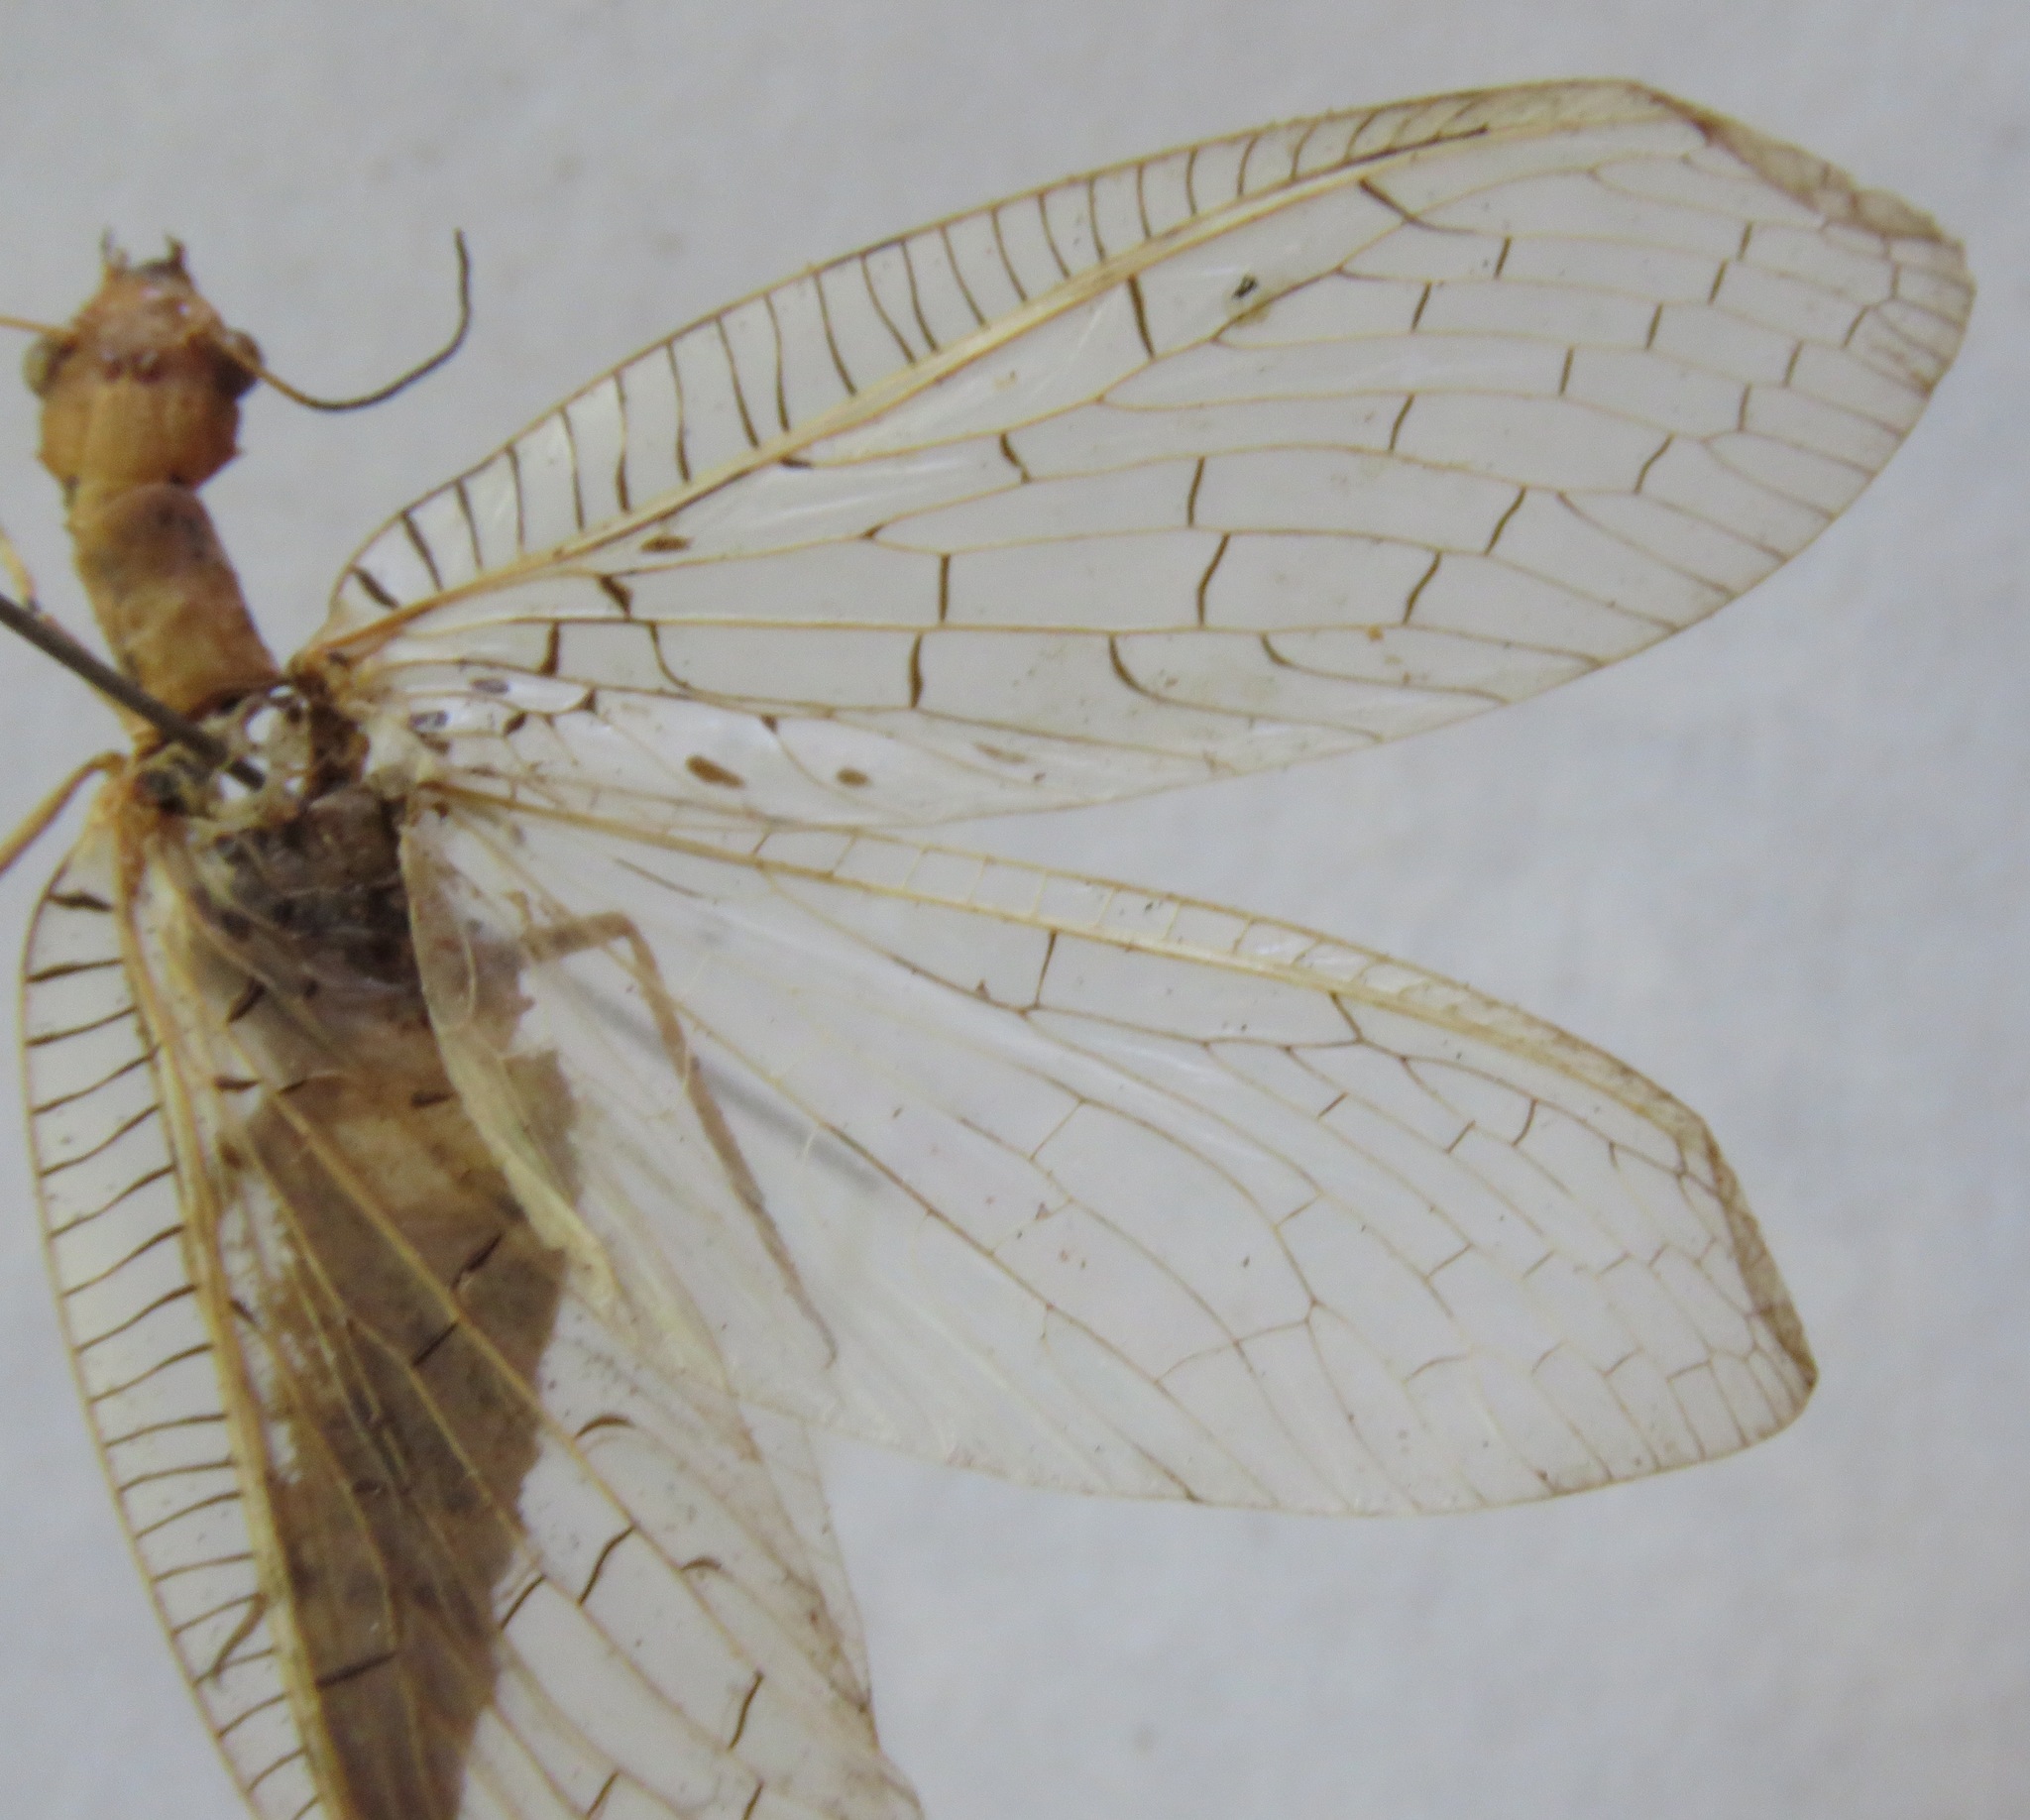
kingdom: Animalia
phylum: Arthropoda
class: Insecta
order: Megaloptera
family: Corydalidae
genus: Chloronia
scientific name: Chloronia mexicana
